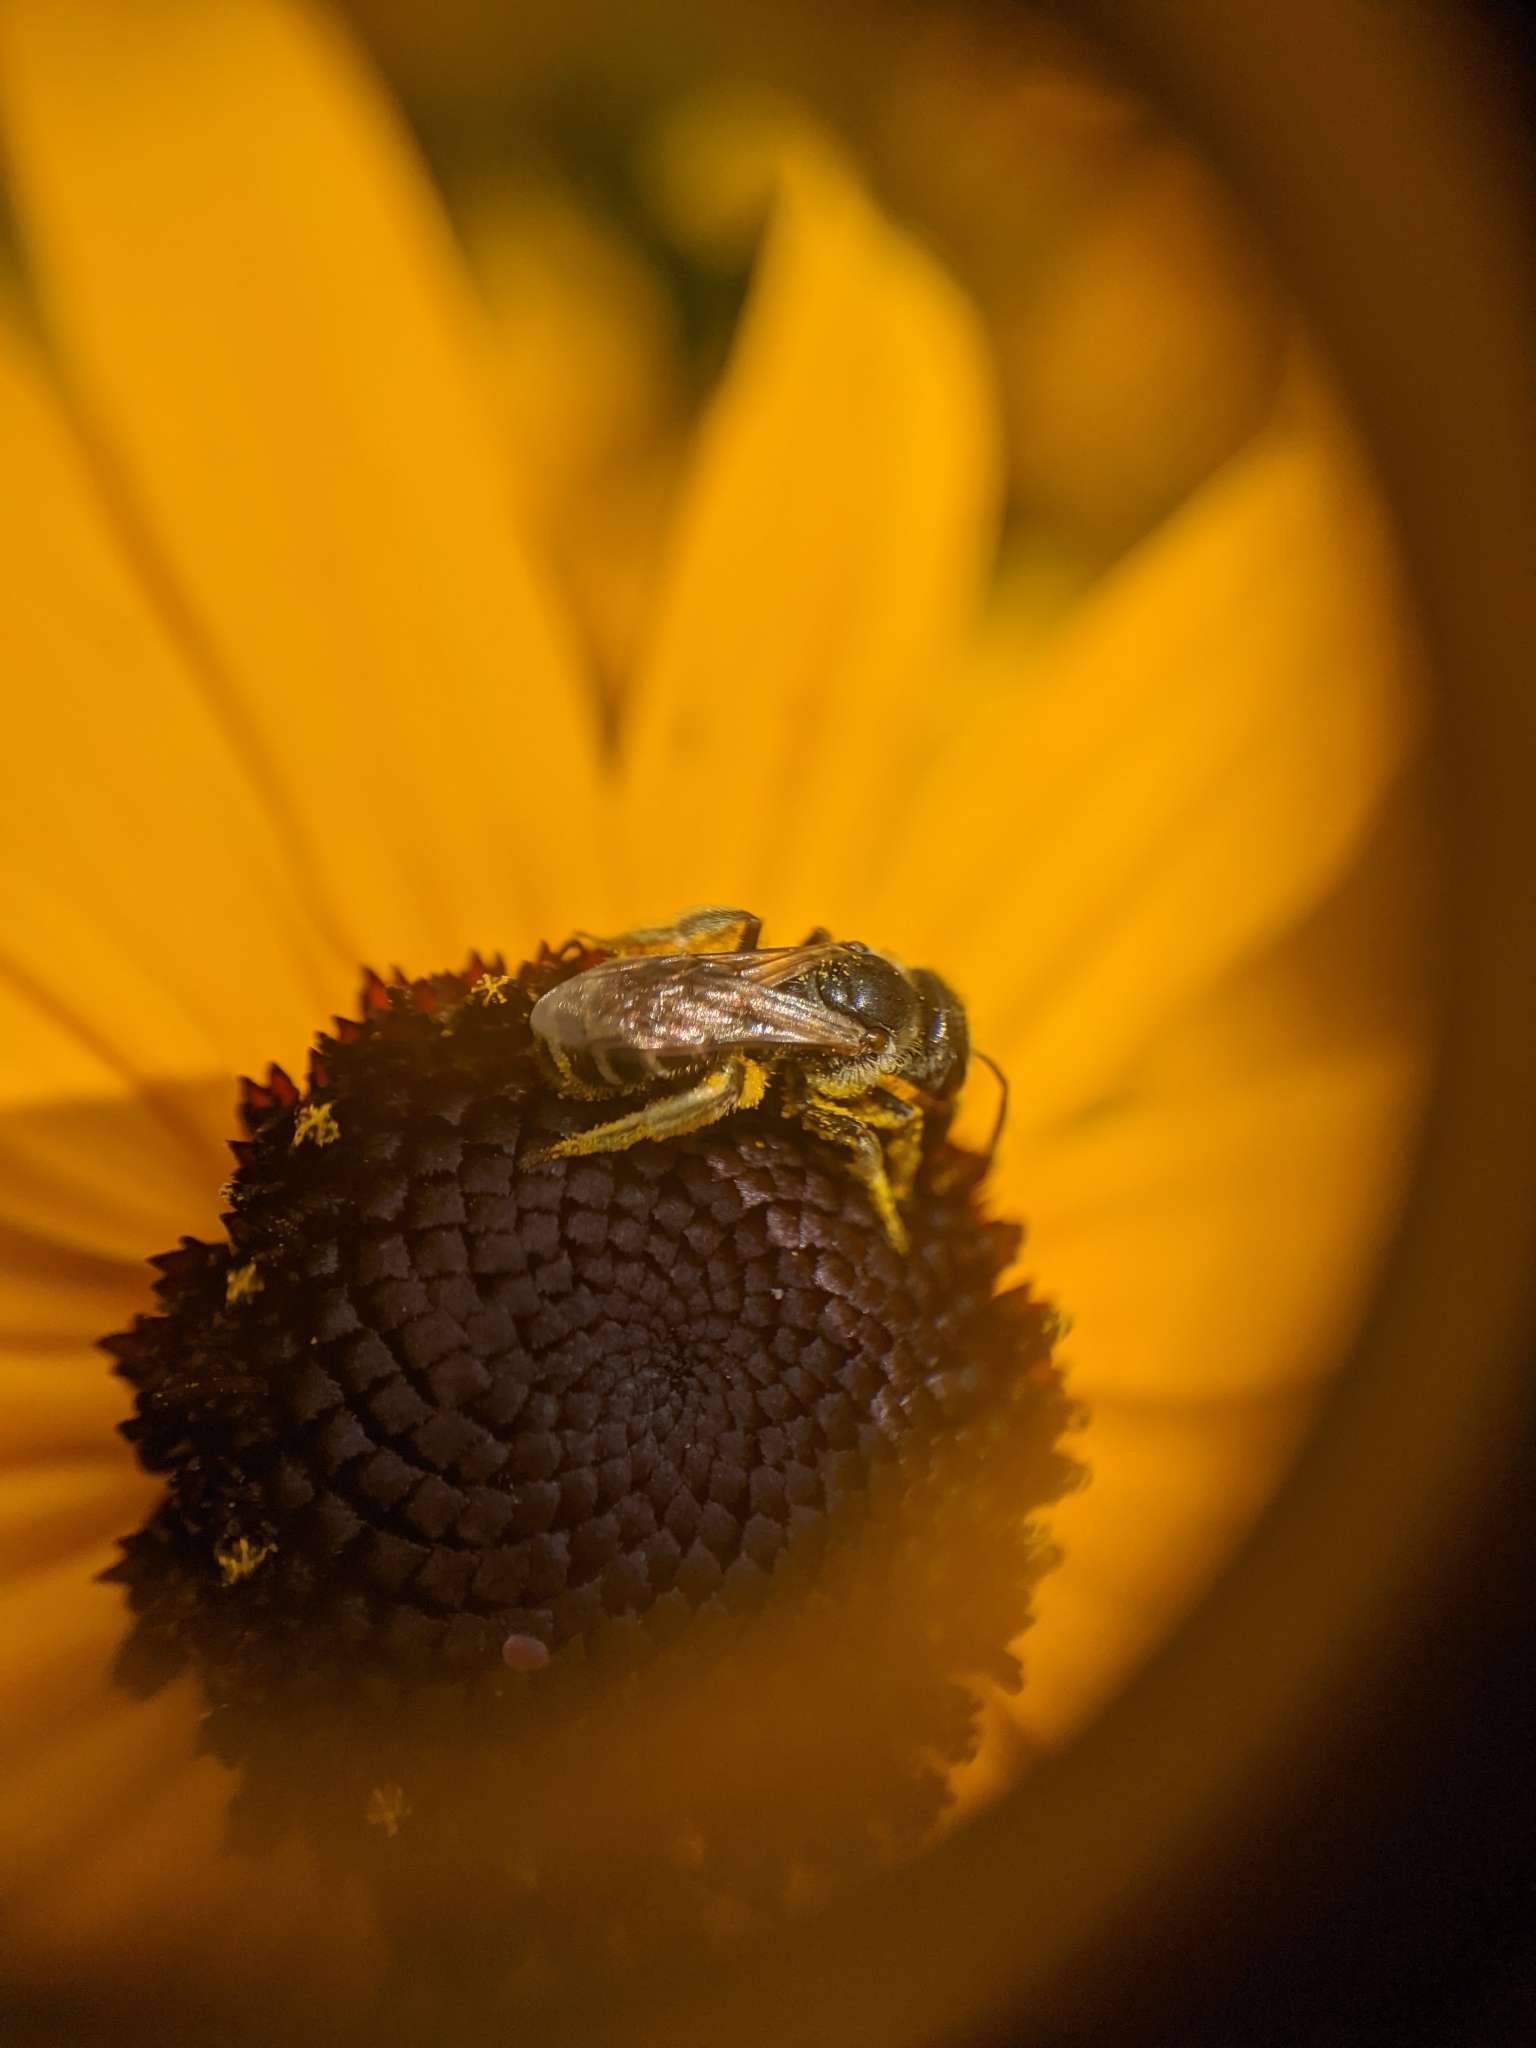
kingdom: Animalia
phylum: Arthropoda
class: Insecta
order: Hymenoptera
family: Halictidae
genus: Halictus
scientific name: Halictus ligatus
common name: Ligated furrow bee
